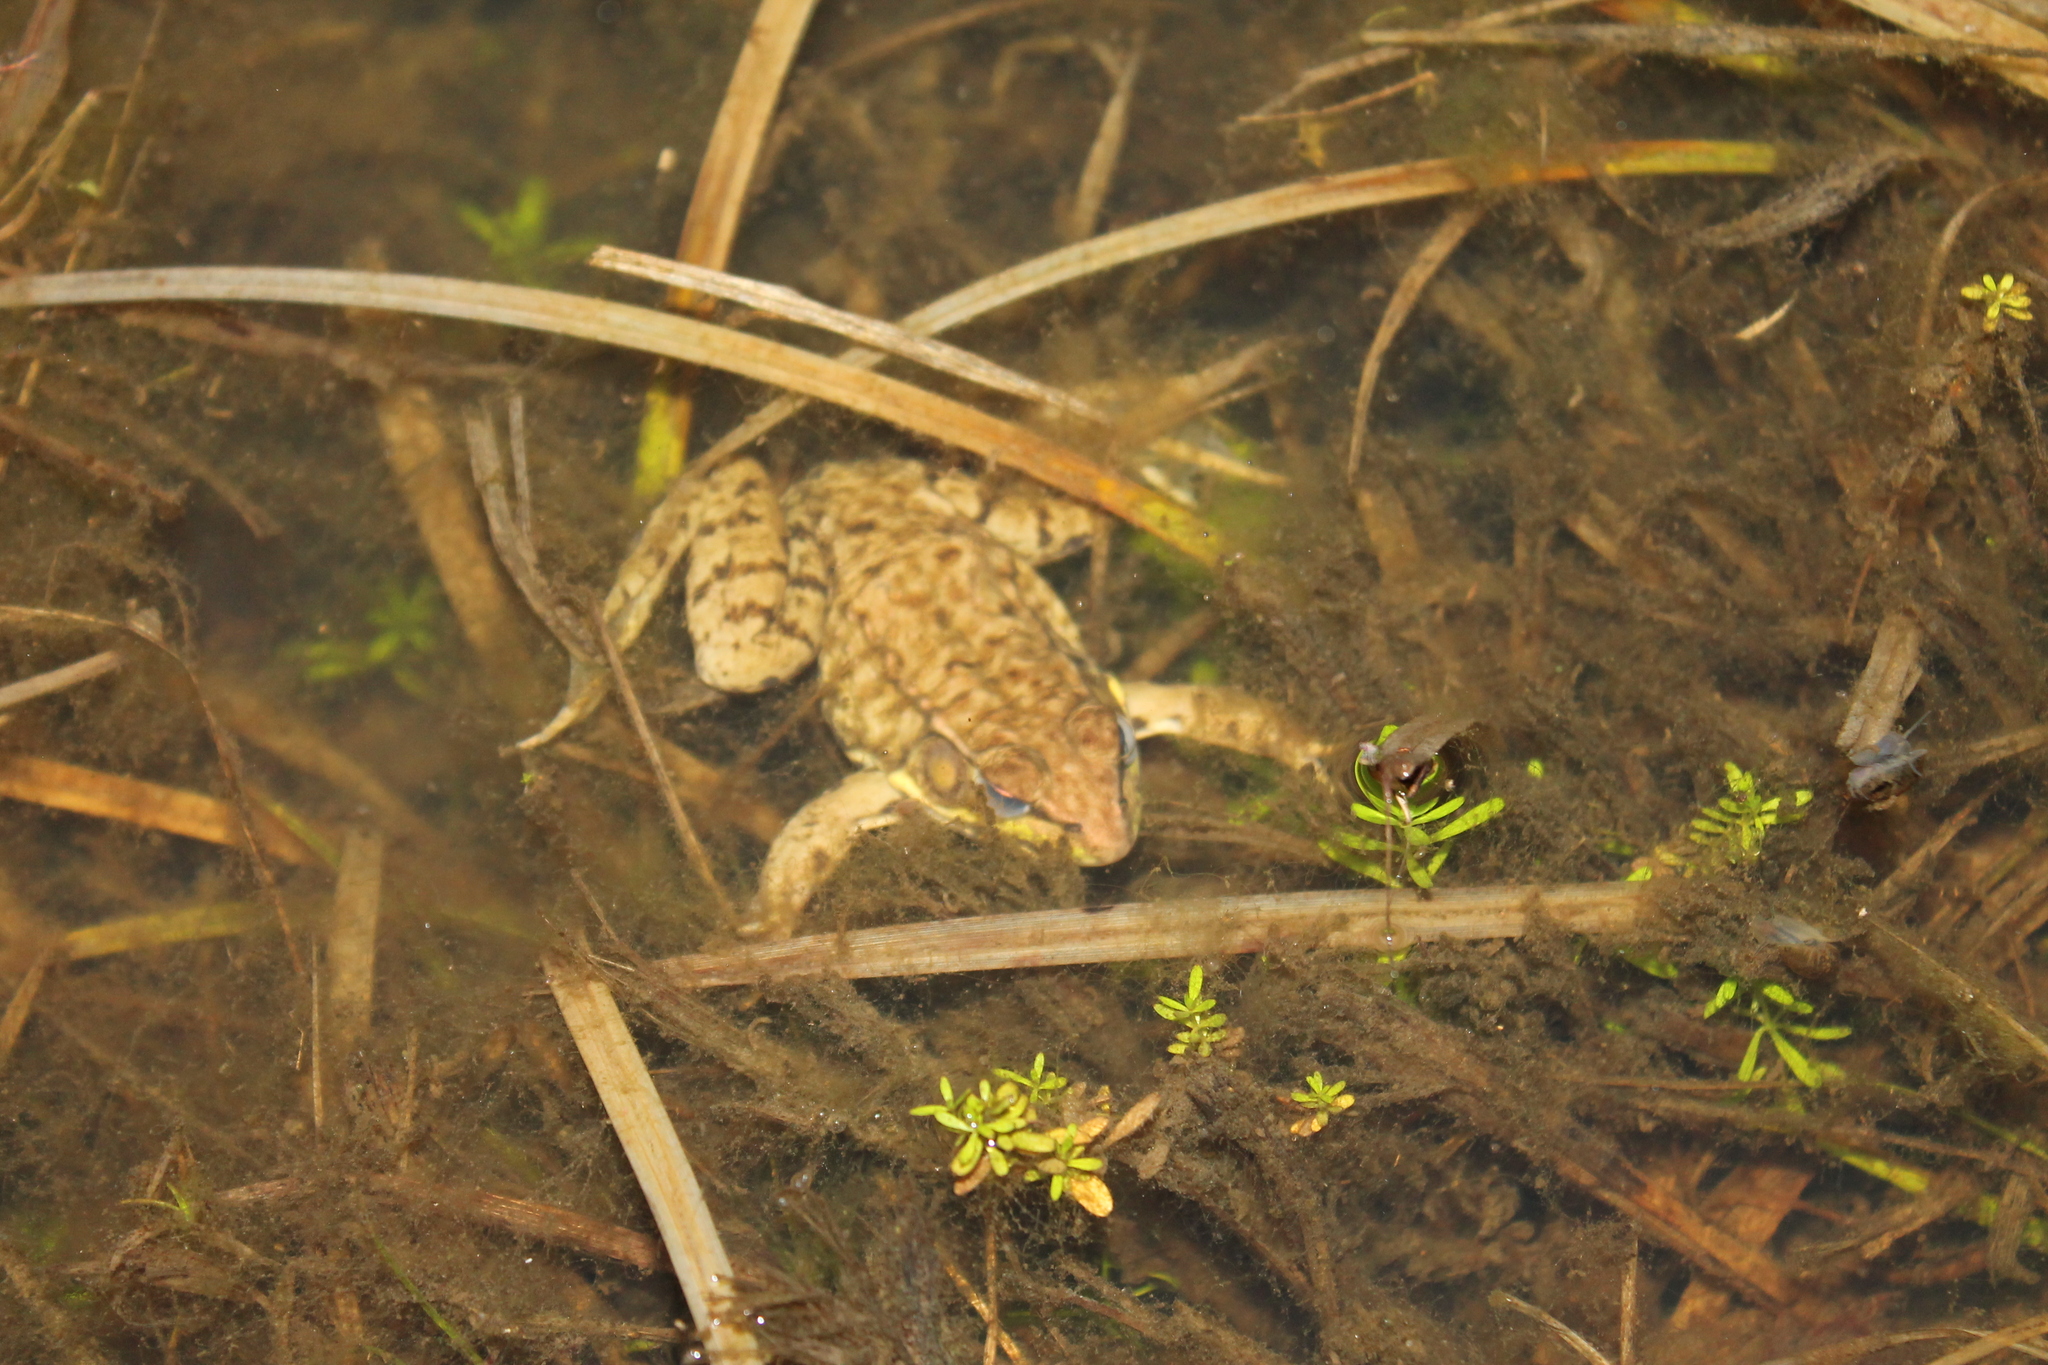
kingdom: Animalia
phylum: Chordata
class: Amphibia
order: Anura
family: Ranidae
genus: Lithobates
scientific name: Lithobates clamitans
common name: Green frog
